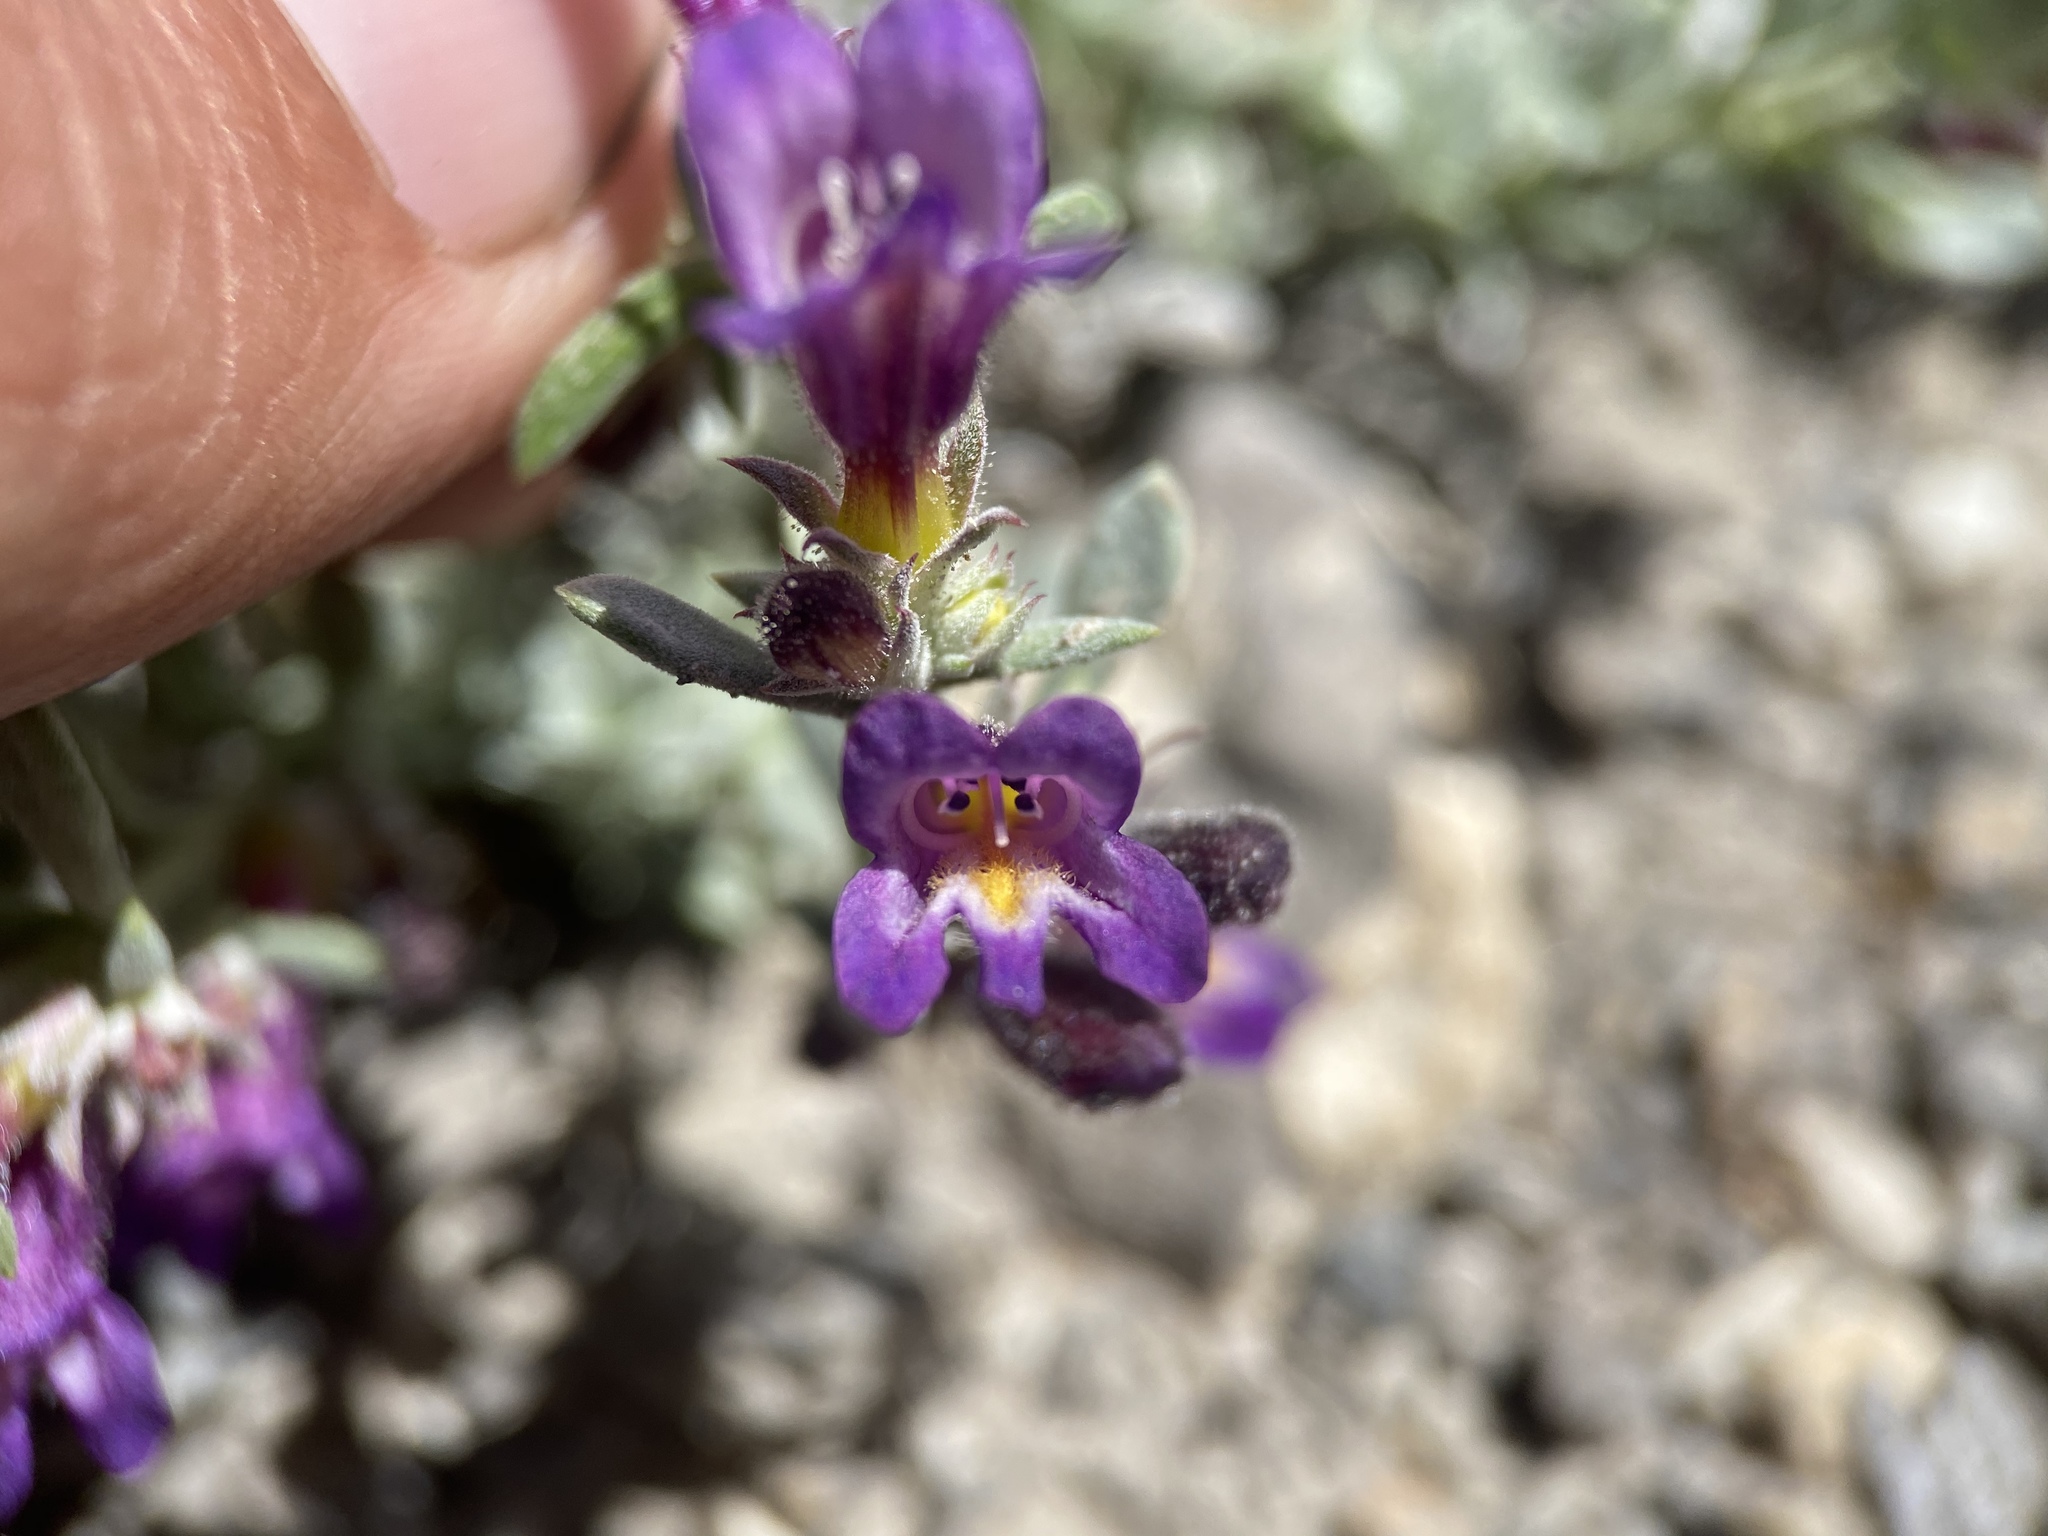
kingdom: Plantae
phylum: Tracheophyta
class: Magnoliopsida
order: Lamiales
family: Plantaginaceae
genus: Penstemon
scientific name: Penstemon thompsoniae
